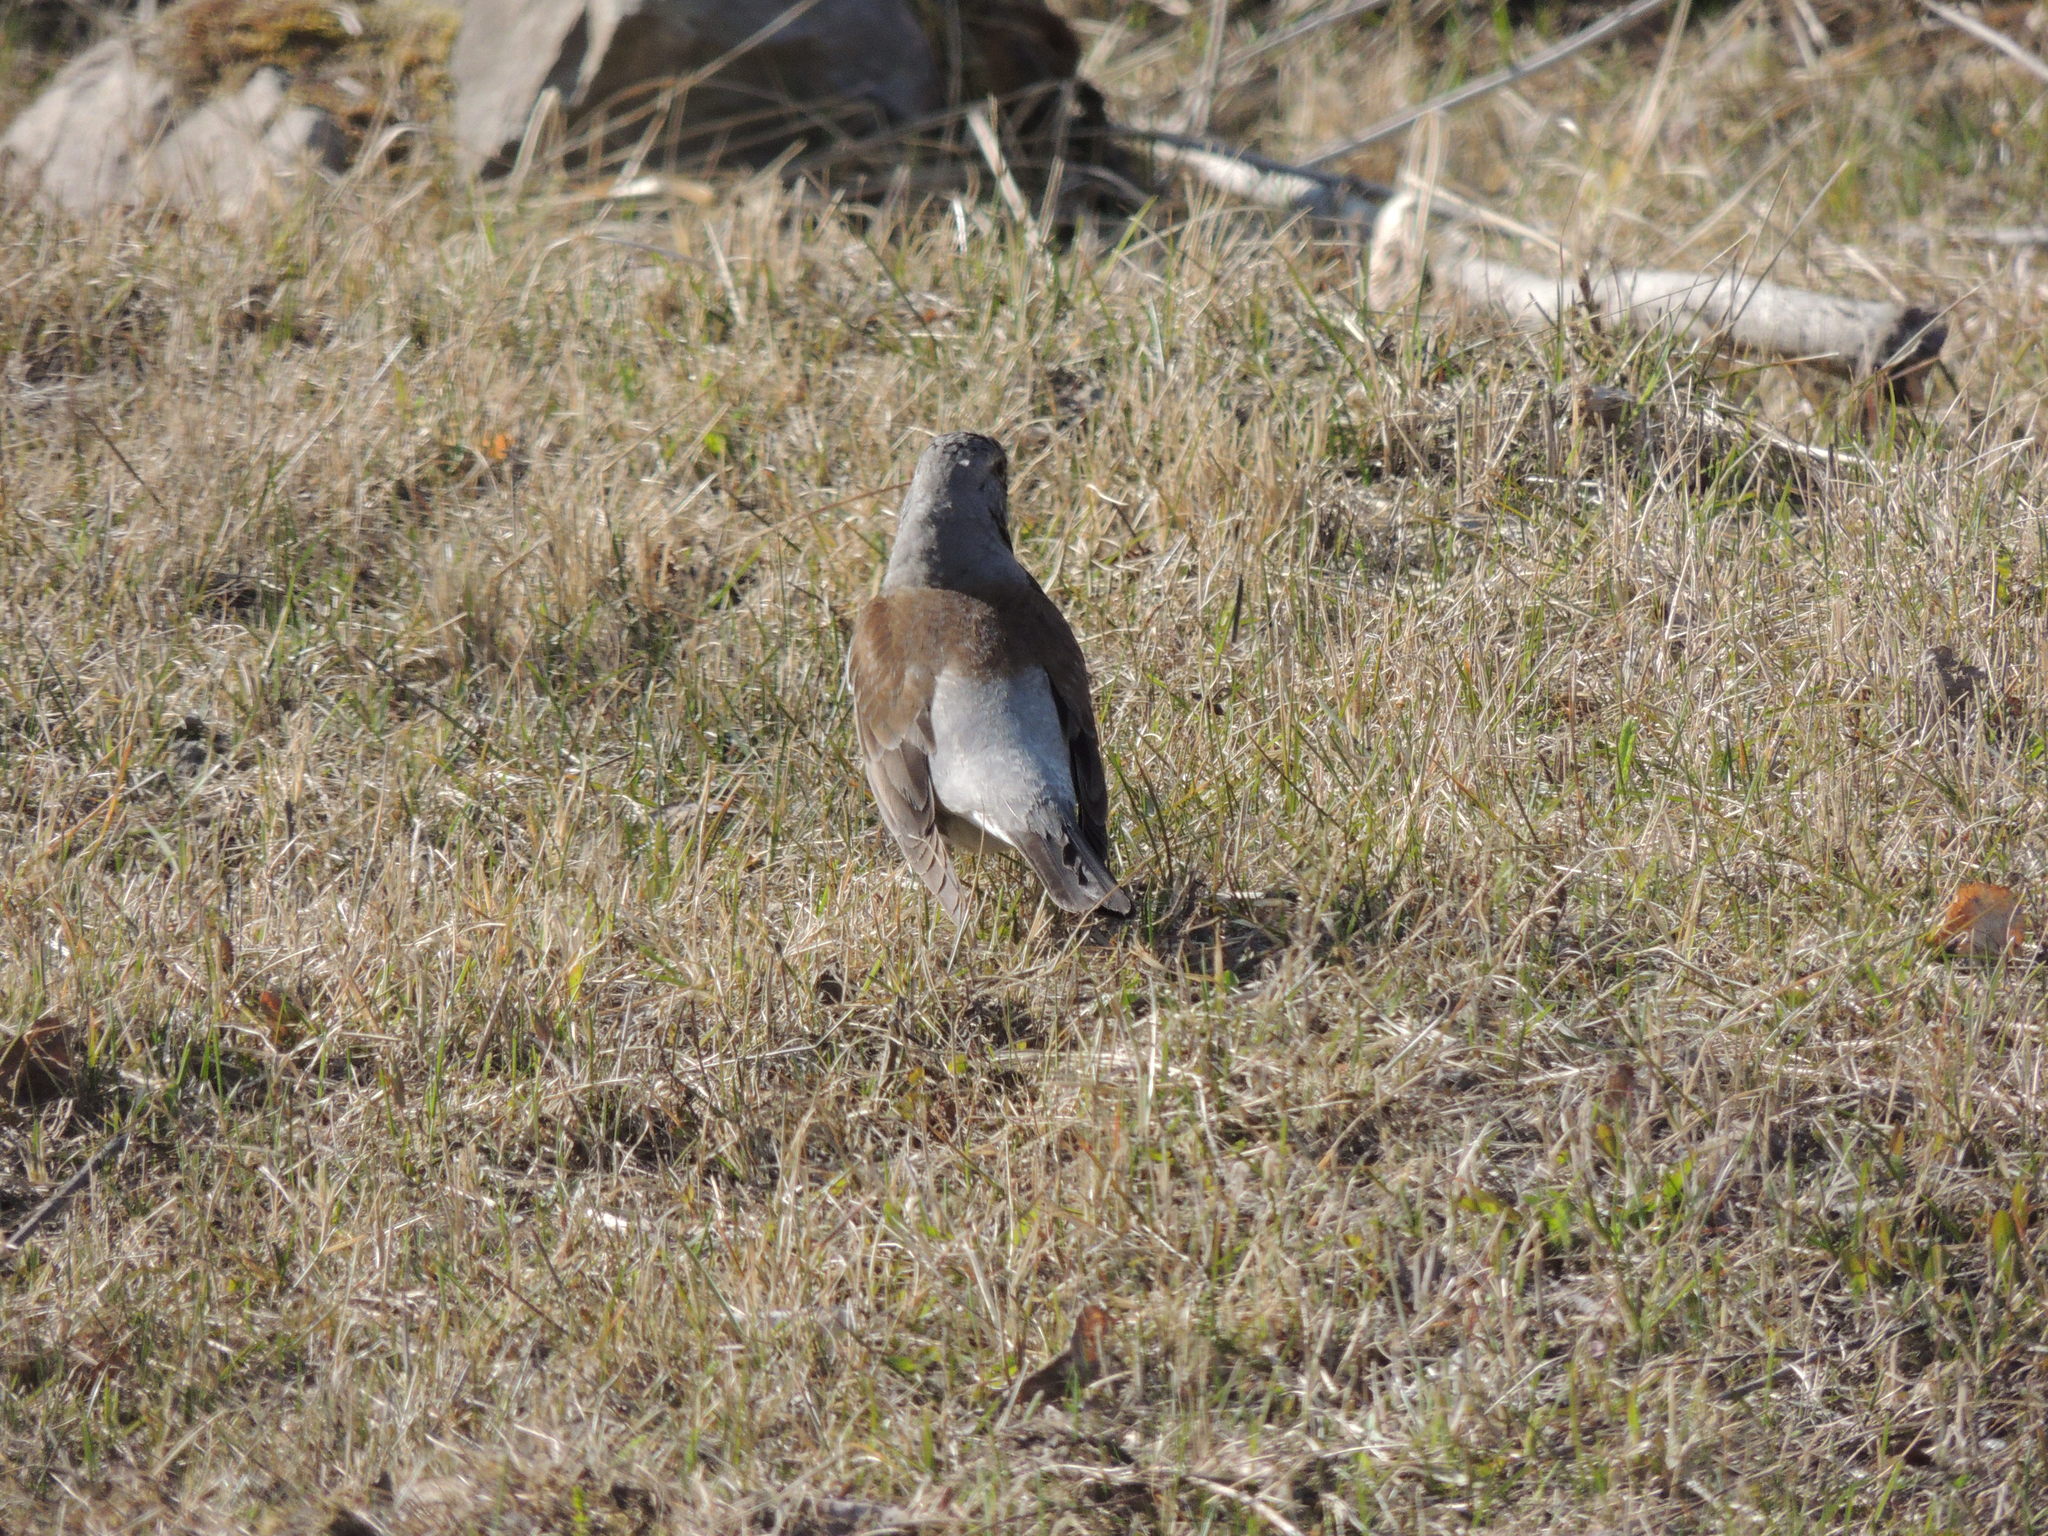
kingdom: Animalia
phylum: Chordata
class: Aves
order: Passeriformes
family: Turdidae
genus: Turdus
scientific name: Turdus pilaris
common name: Fieldfare
